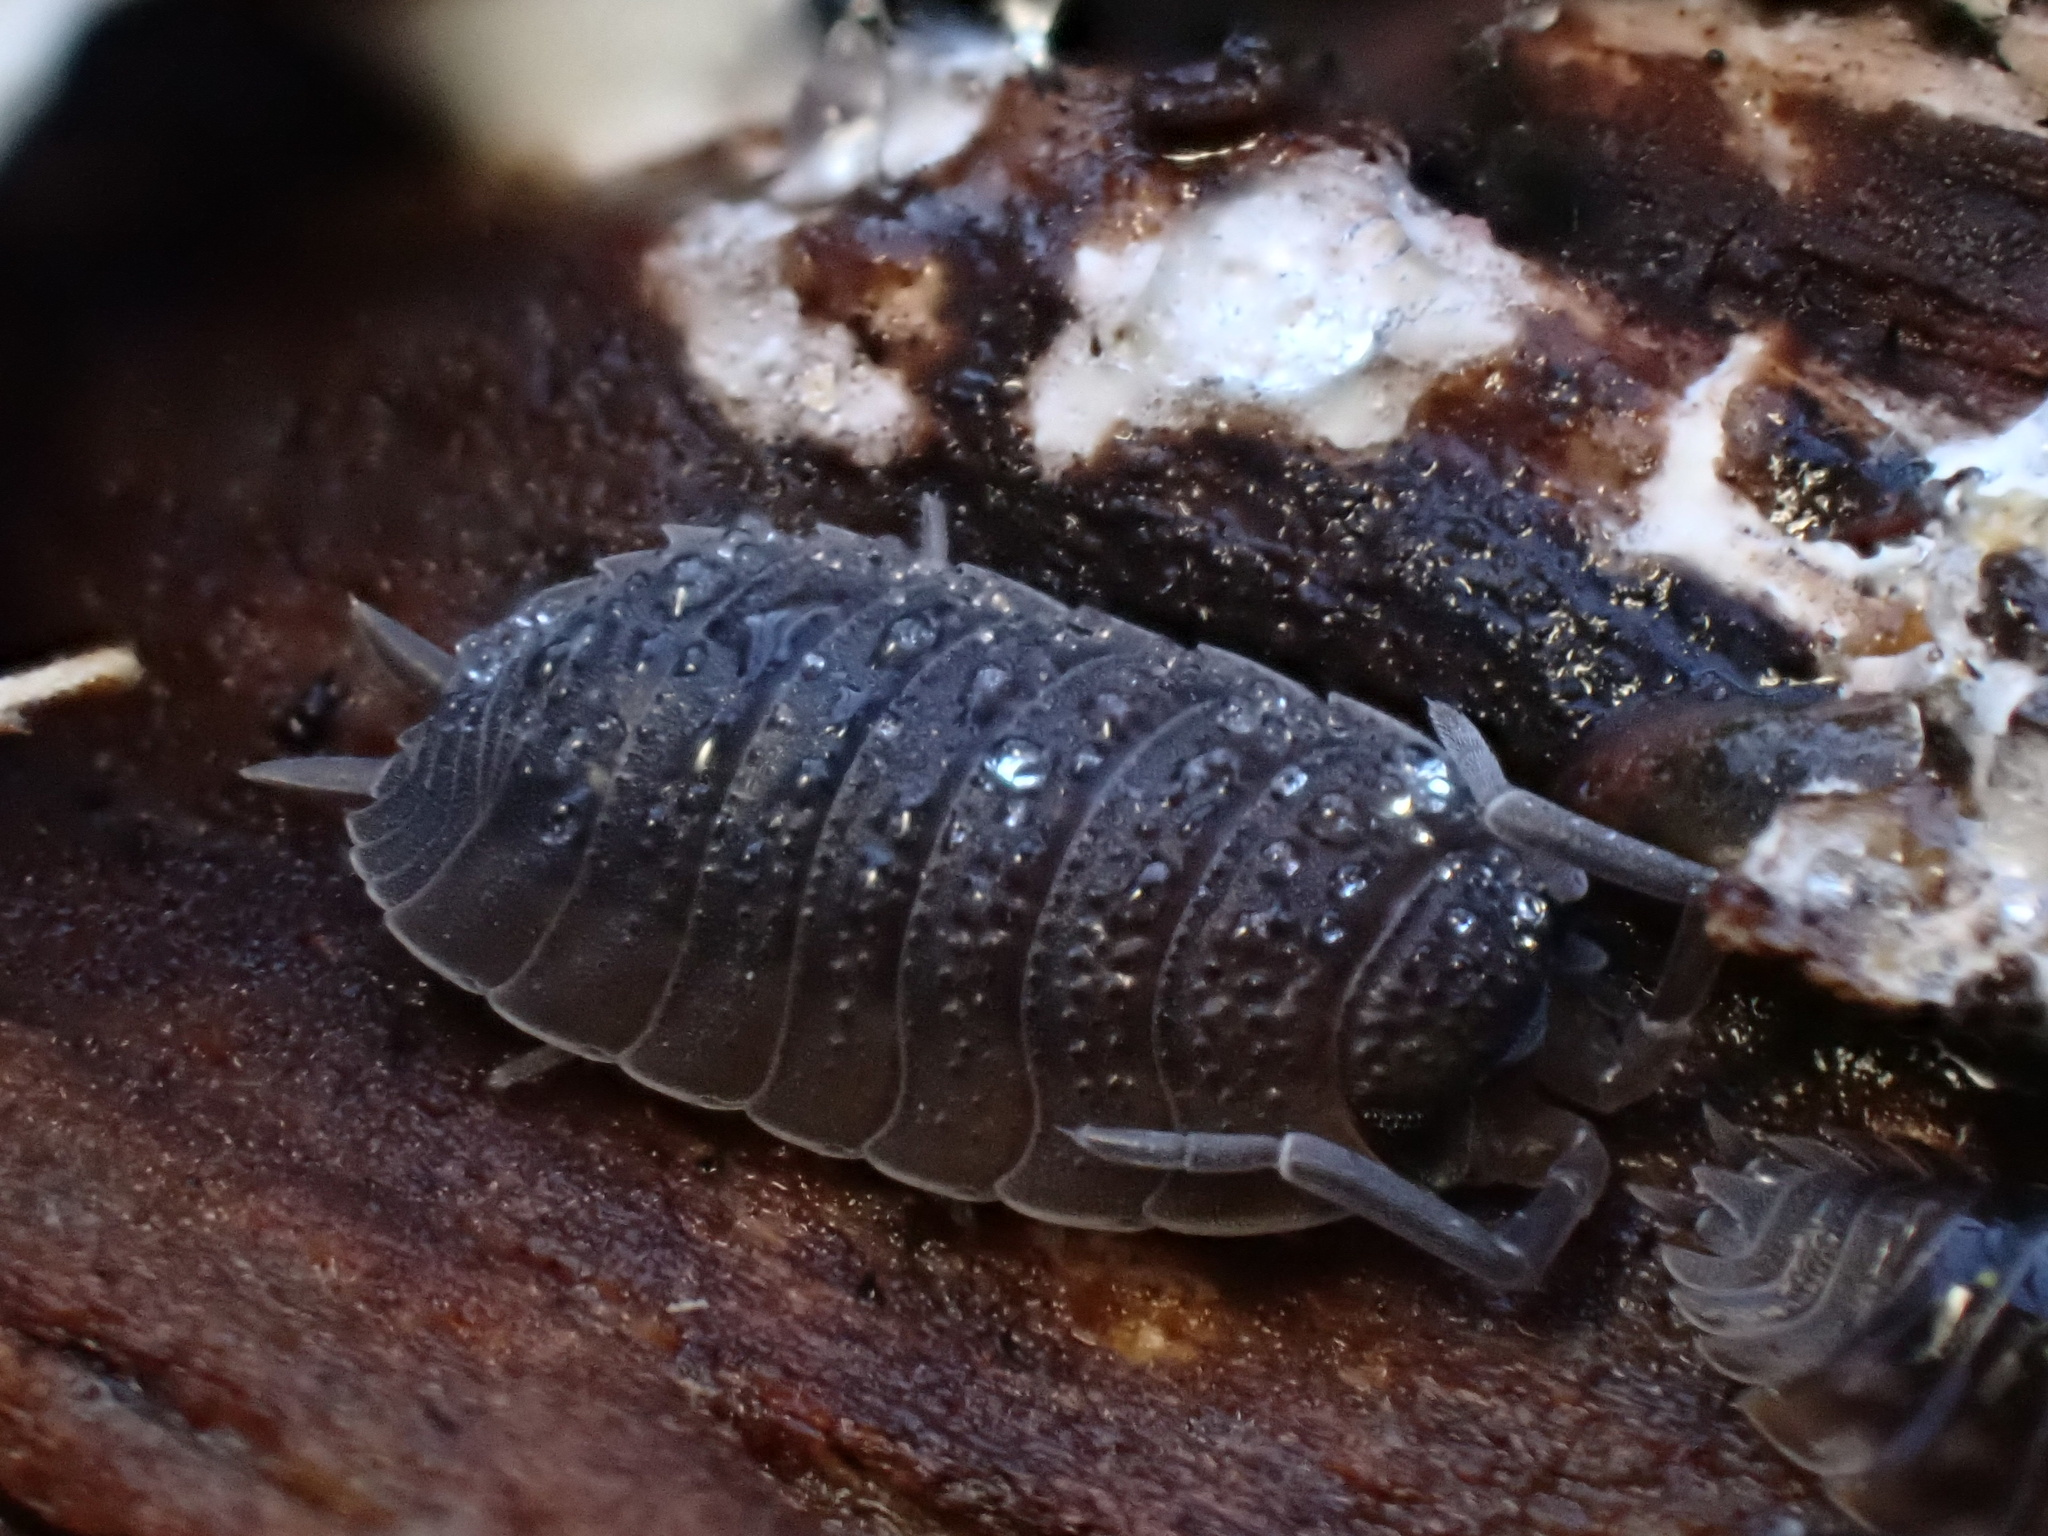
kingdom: Animalia
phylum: Arthropoda
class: Malacostraca
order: Isopoda
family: Porcellionidae
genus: Porcellio
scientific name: Porcellio scaber
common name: Common rough woodlouse
